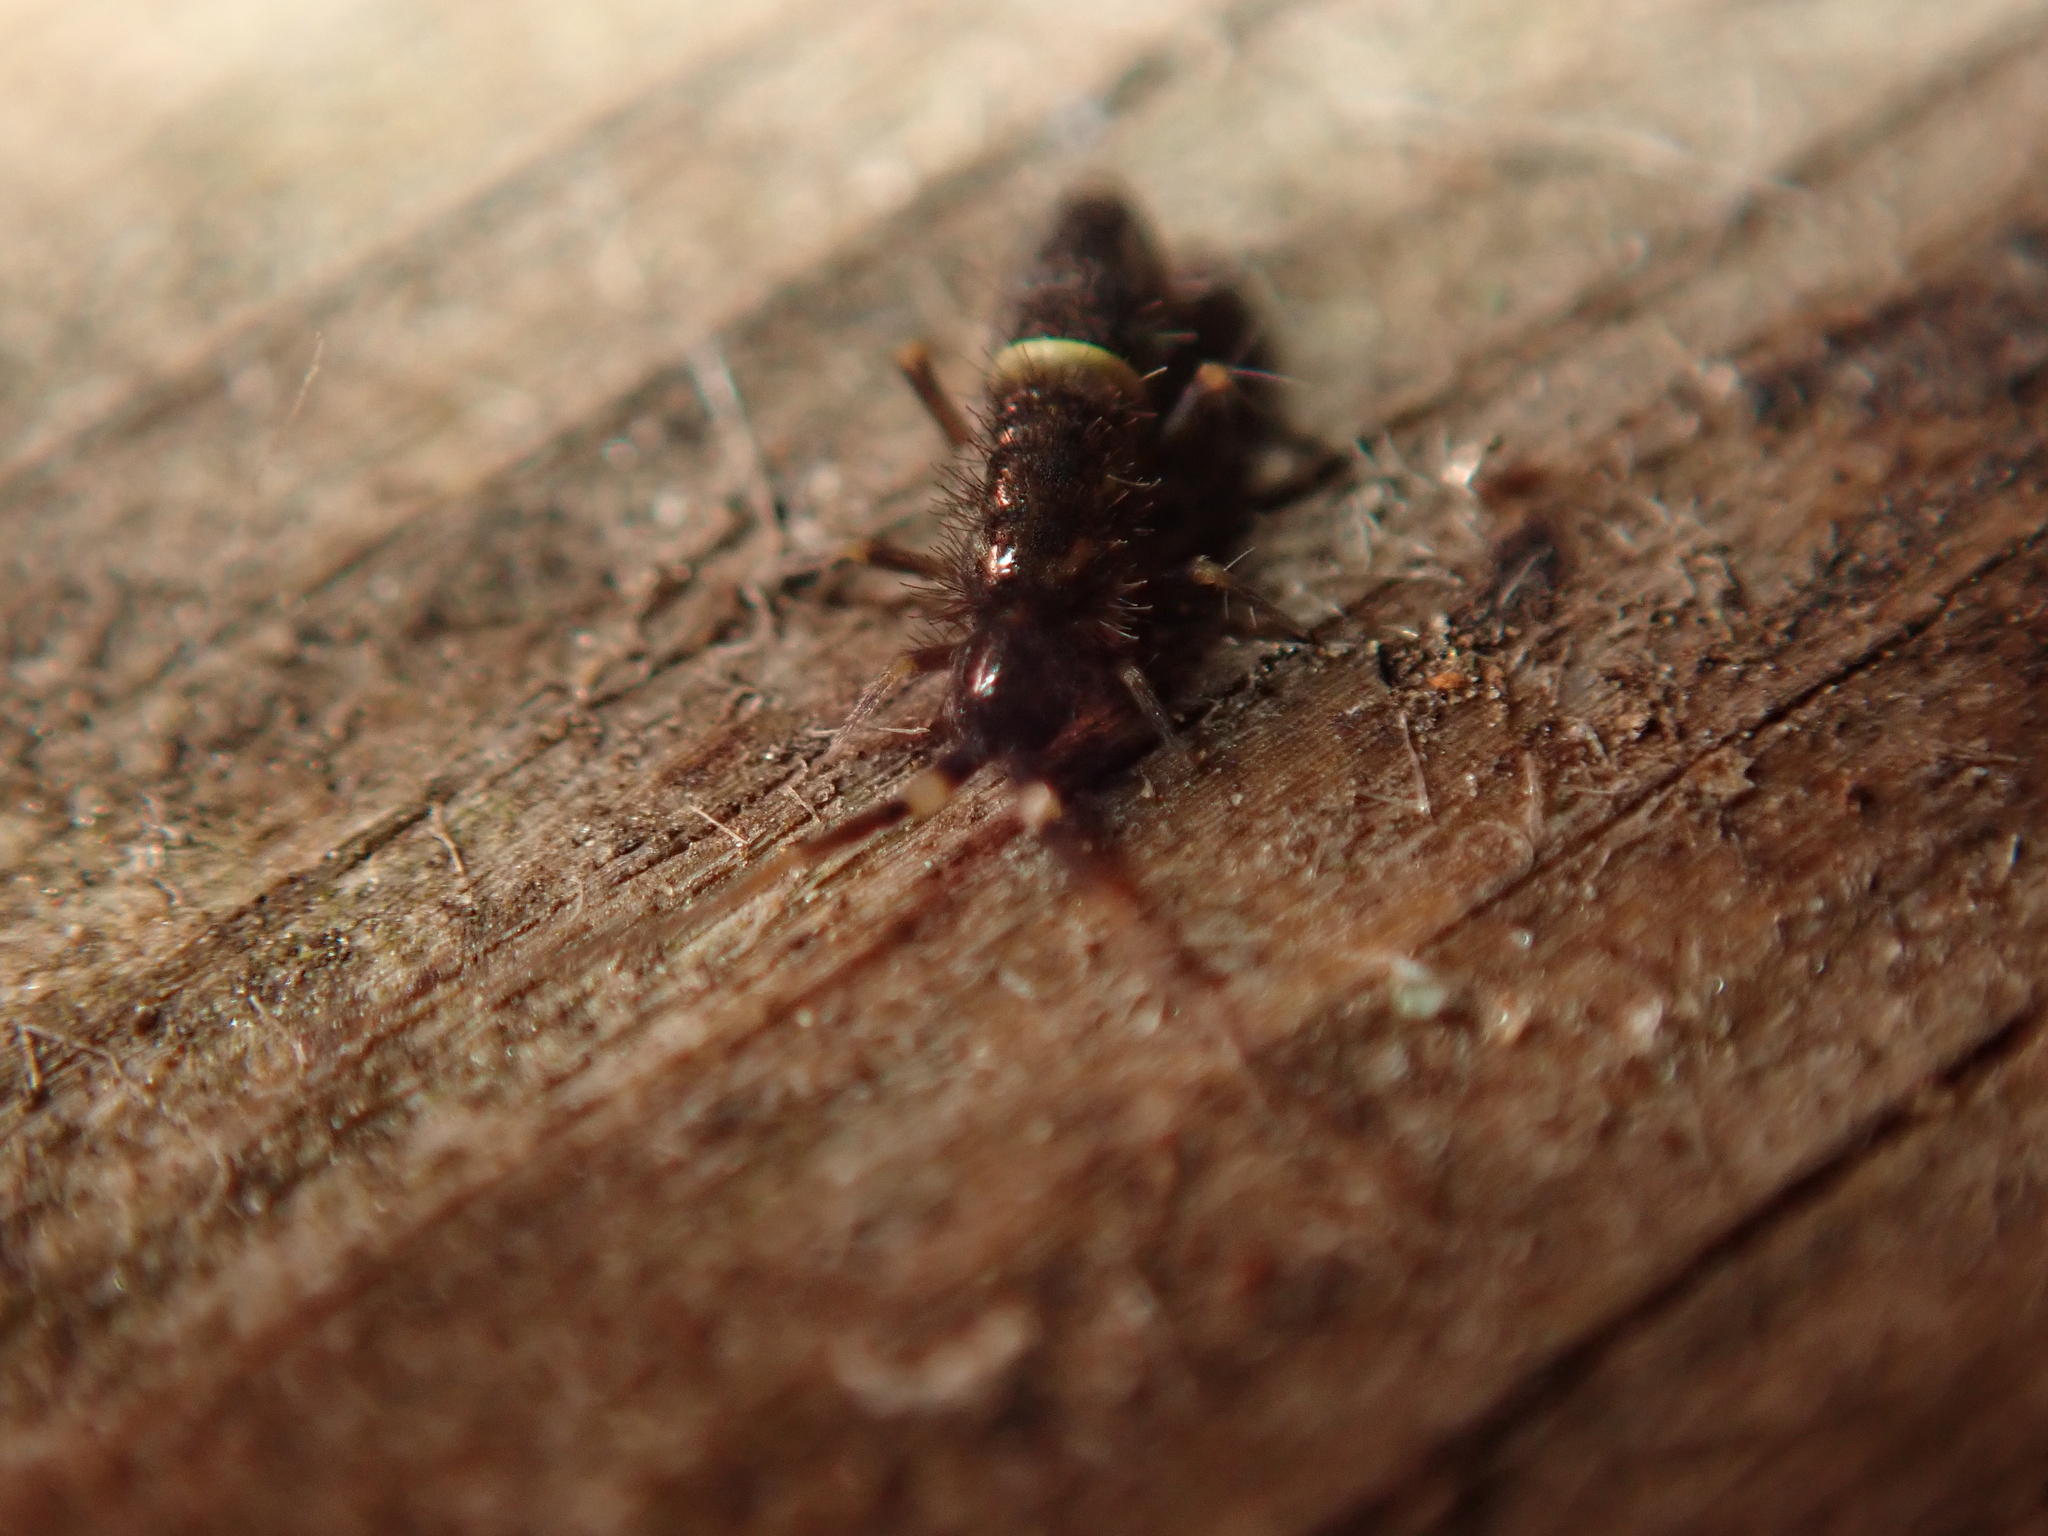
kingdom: Animalia
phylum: Arthropoda
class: Collembola
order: Entomobryomorpha
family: Orchesellidae
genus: Orchesella
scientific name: Orchesella cincta
